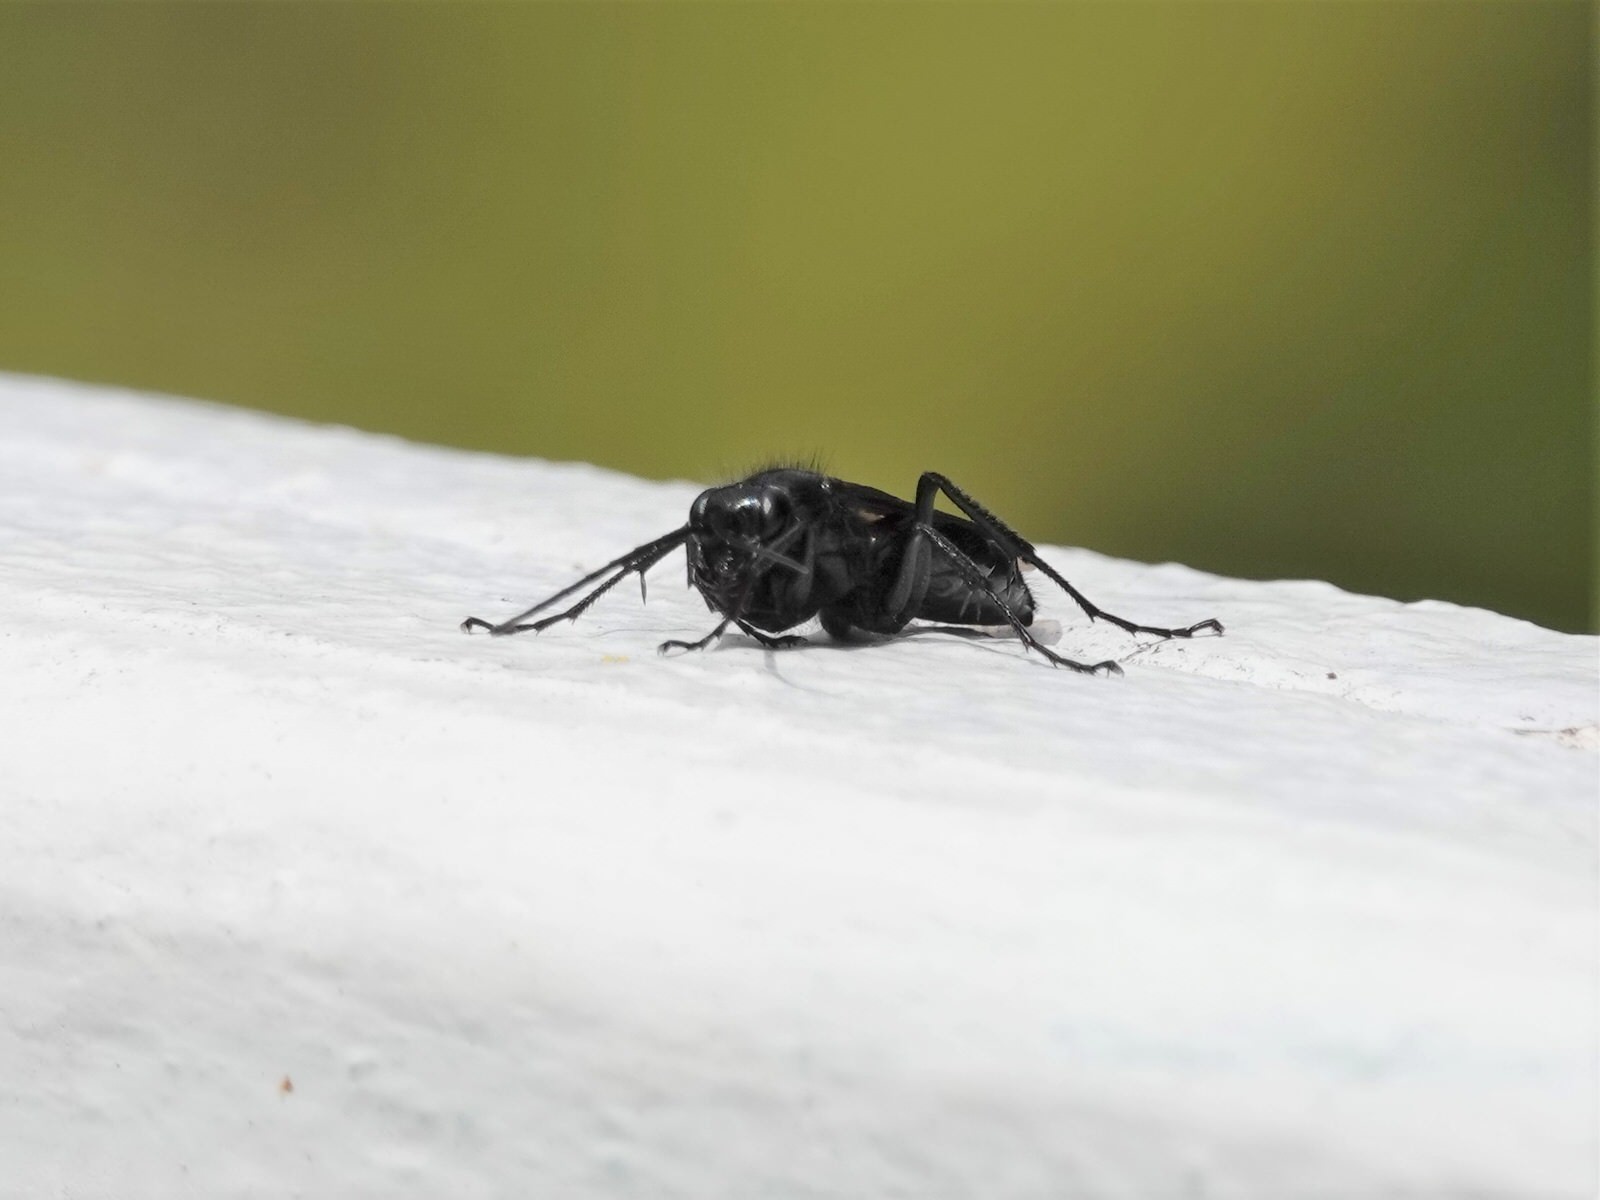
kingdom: Animalia
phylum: Arthropoda
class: Insecta
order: Hymenoptera
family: Pompilidae
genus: Priocnemis
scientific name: Priocnemis monachus
